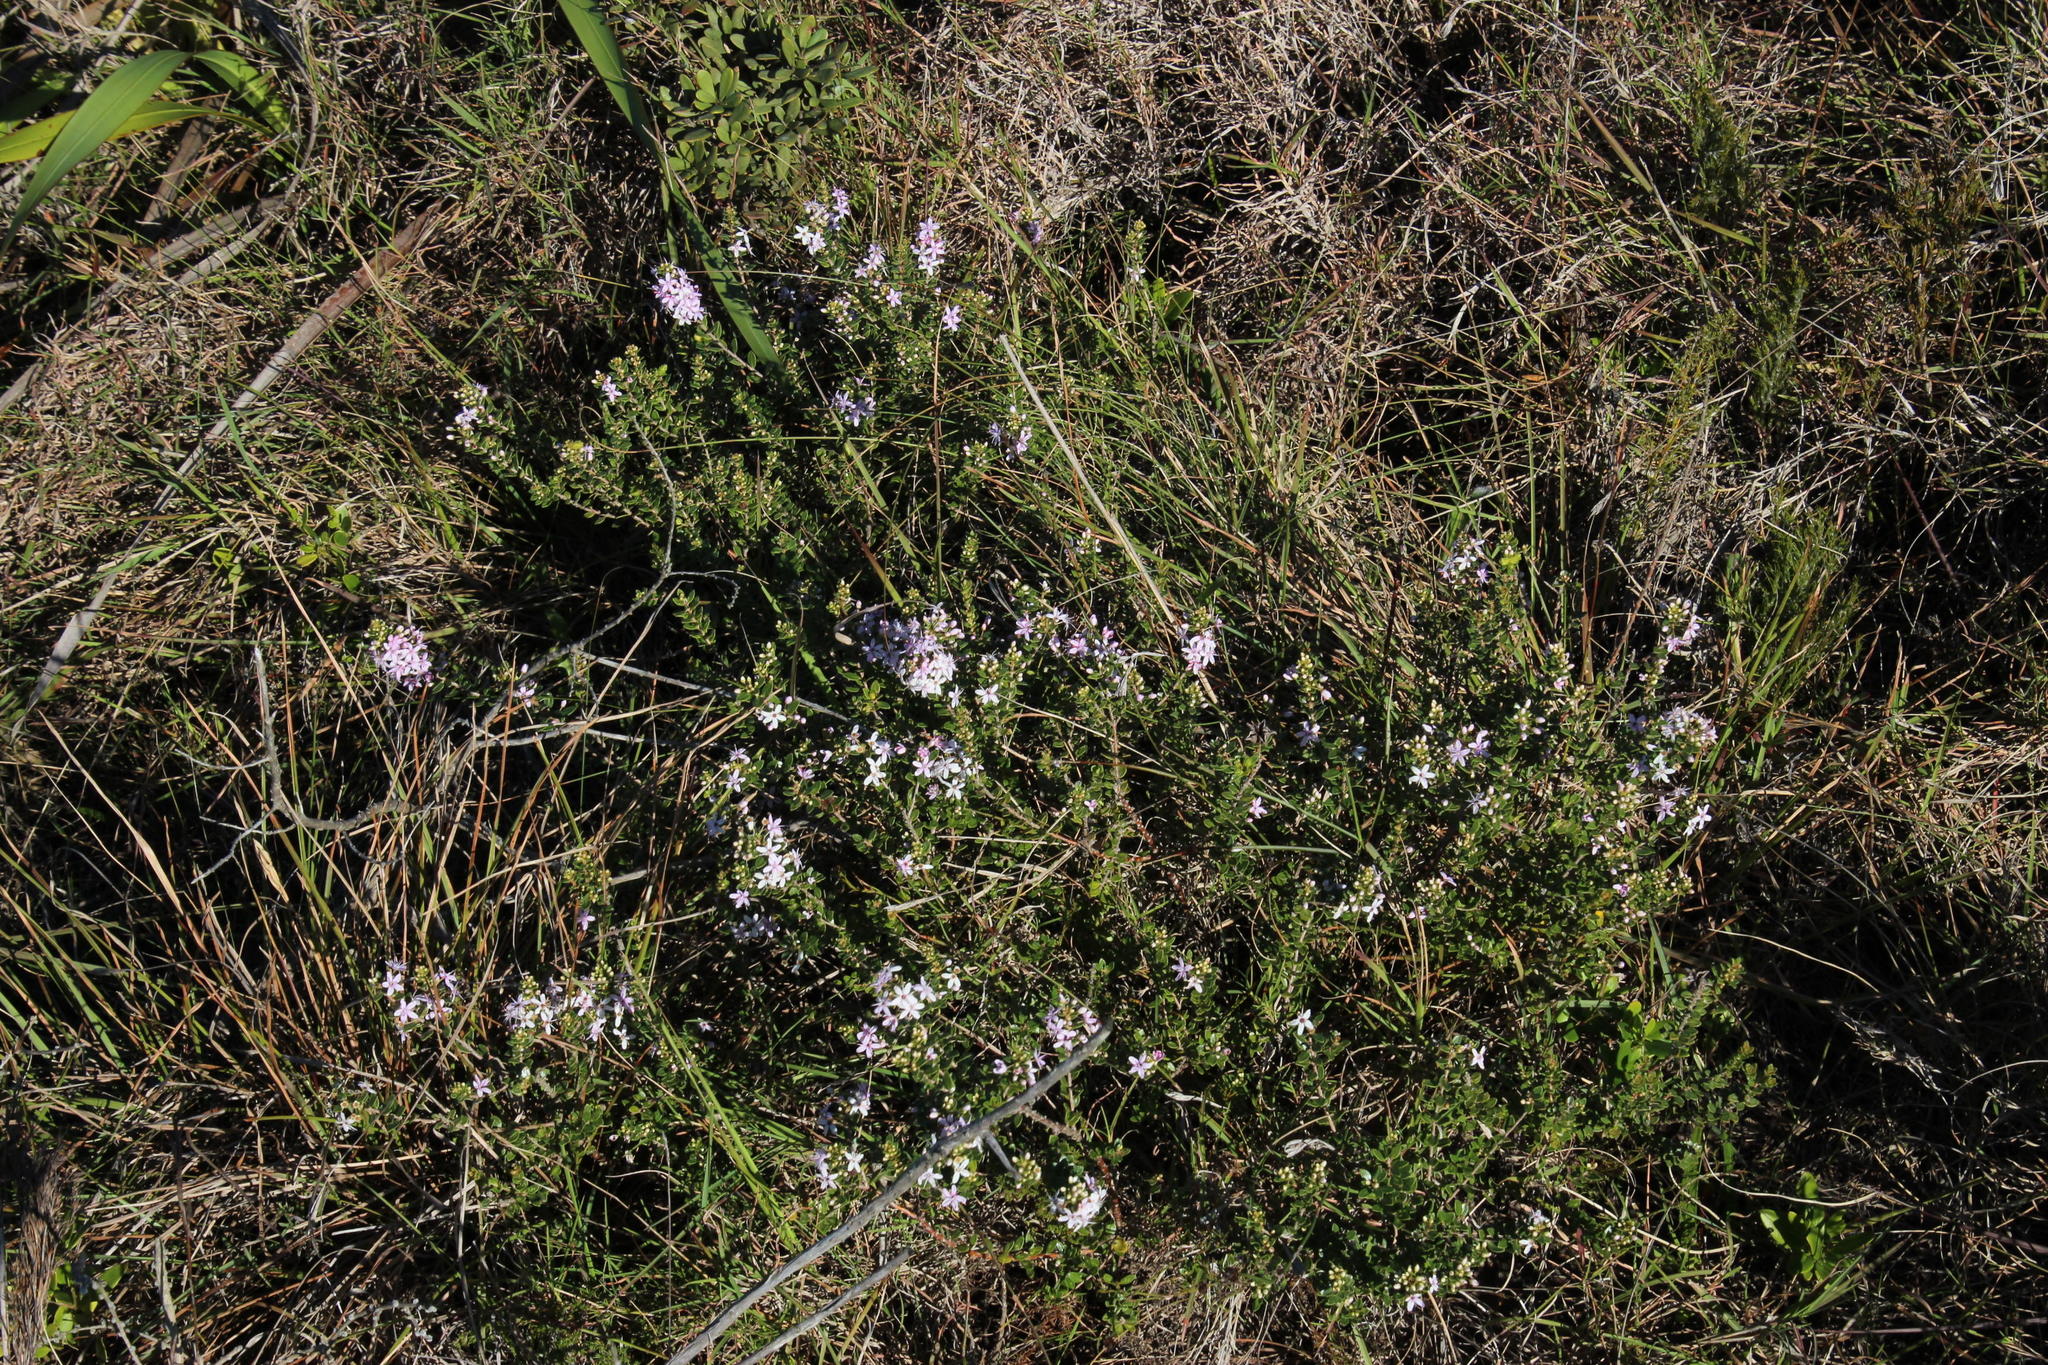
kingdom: Plantae
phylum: Tracheophyta
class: Magnoliopsida
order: Sapindales
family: Rutaceae
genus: Agathosma
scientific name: Agathosma ovata
